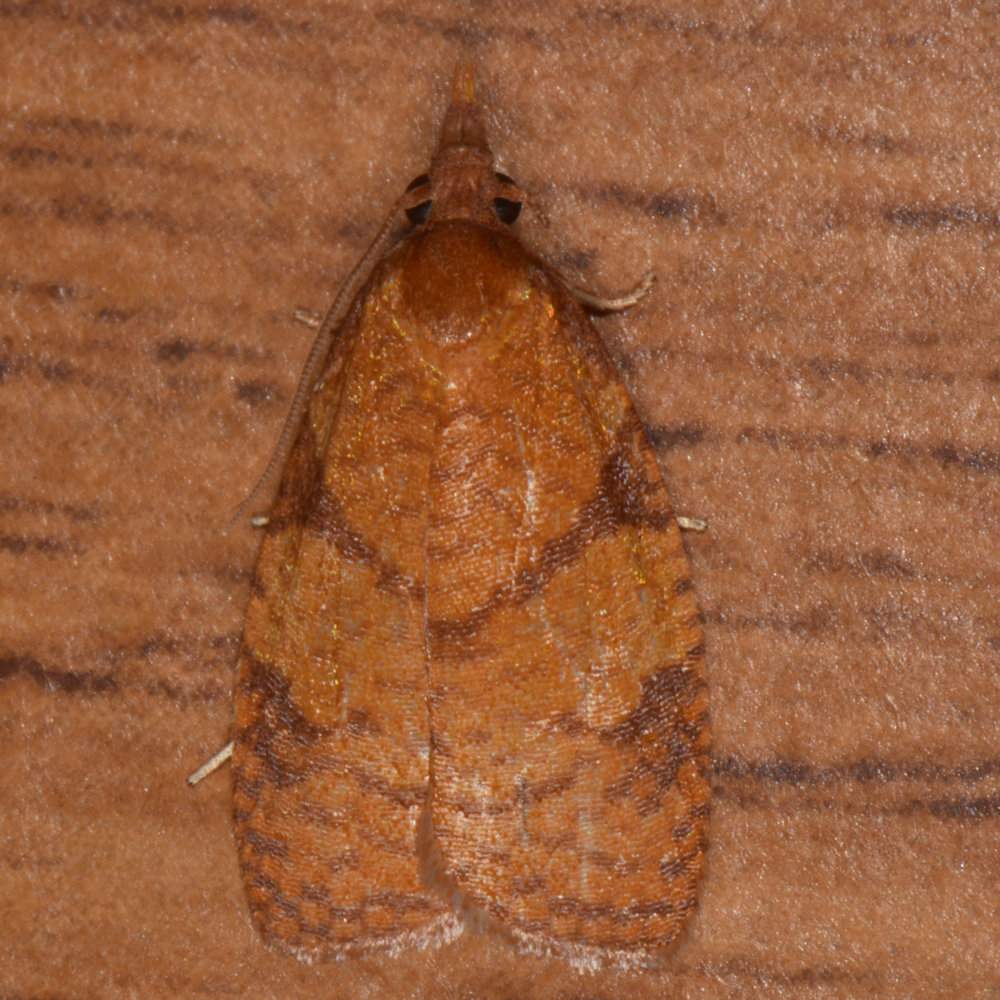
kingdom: Animalia
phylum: Arthropoda
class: Insecta
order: Lepidoptera
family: Tortricidae
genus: Cenopis
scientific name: Cenopis reticulatana
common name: Reticulated fruitworm moth
